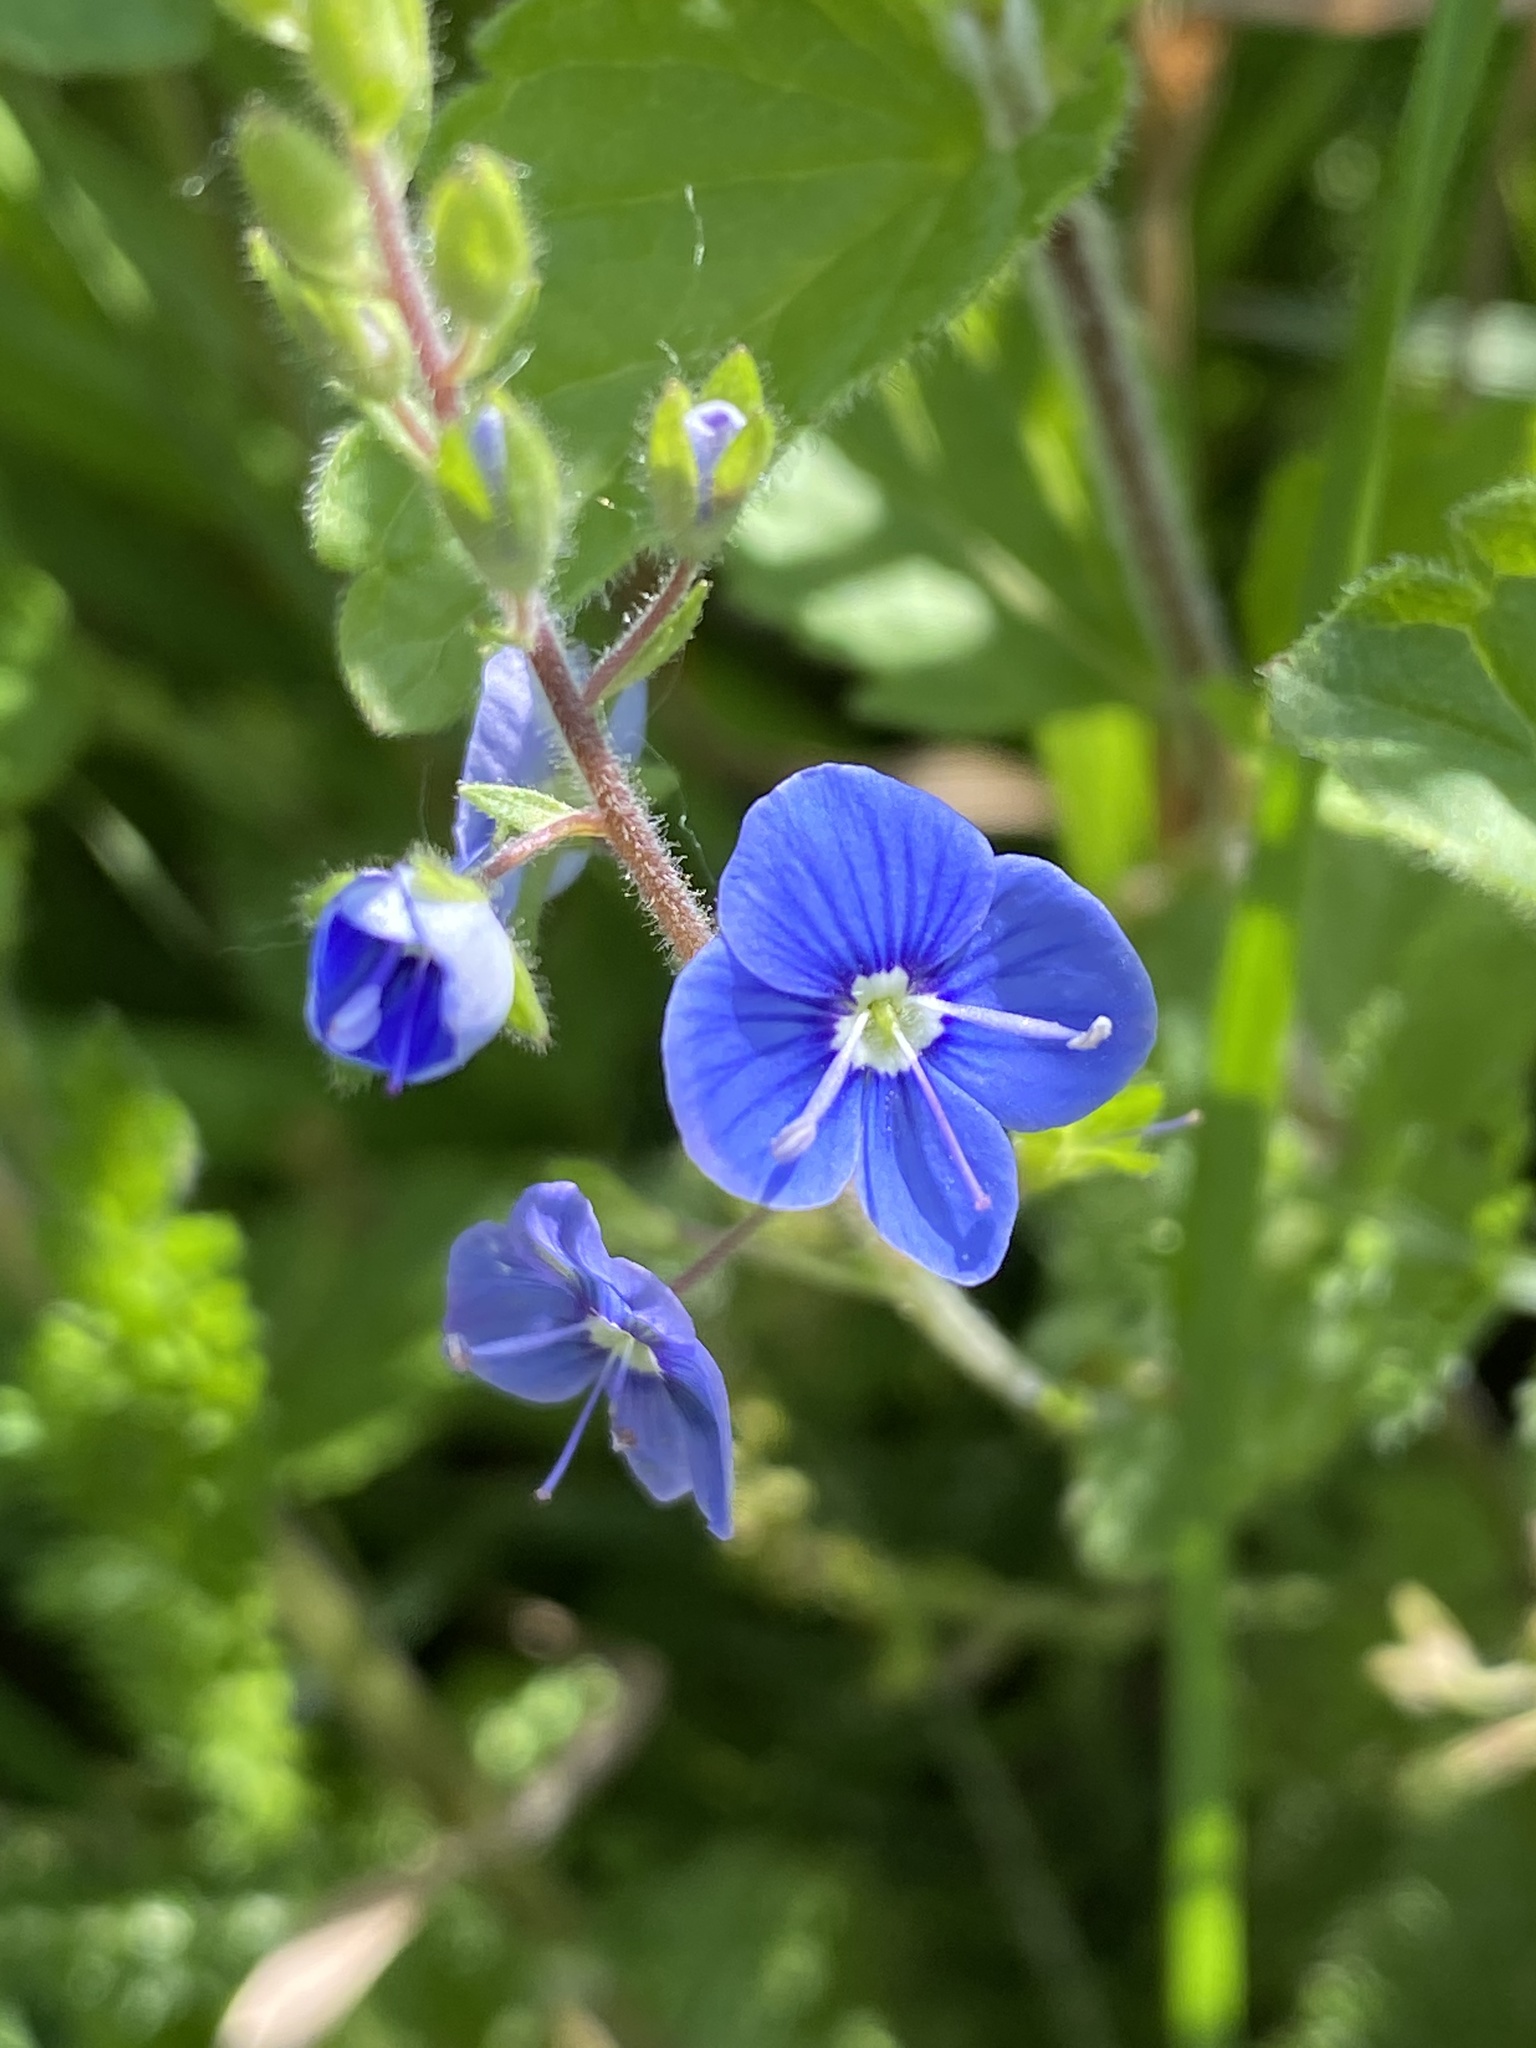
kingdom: Plantae
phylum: Tracheophyta
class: Magnoliopsida
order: Lamiales
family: Plantaginaceae
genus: Veronica
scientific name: Veronica chamaedrys
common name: Germander speedwell
